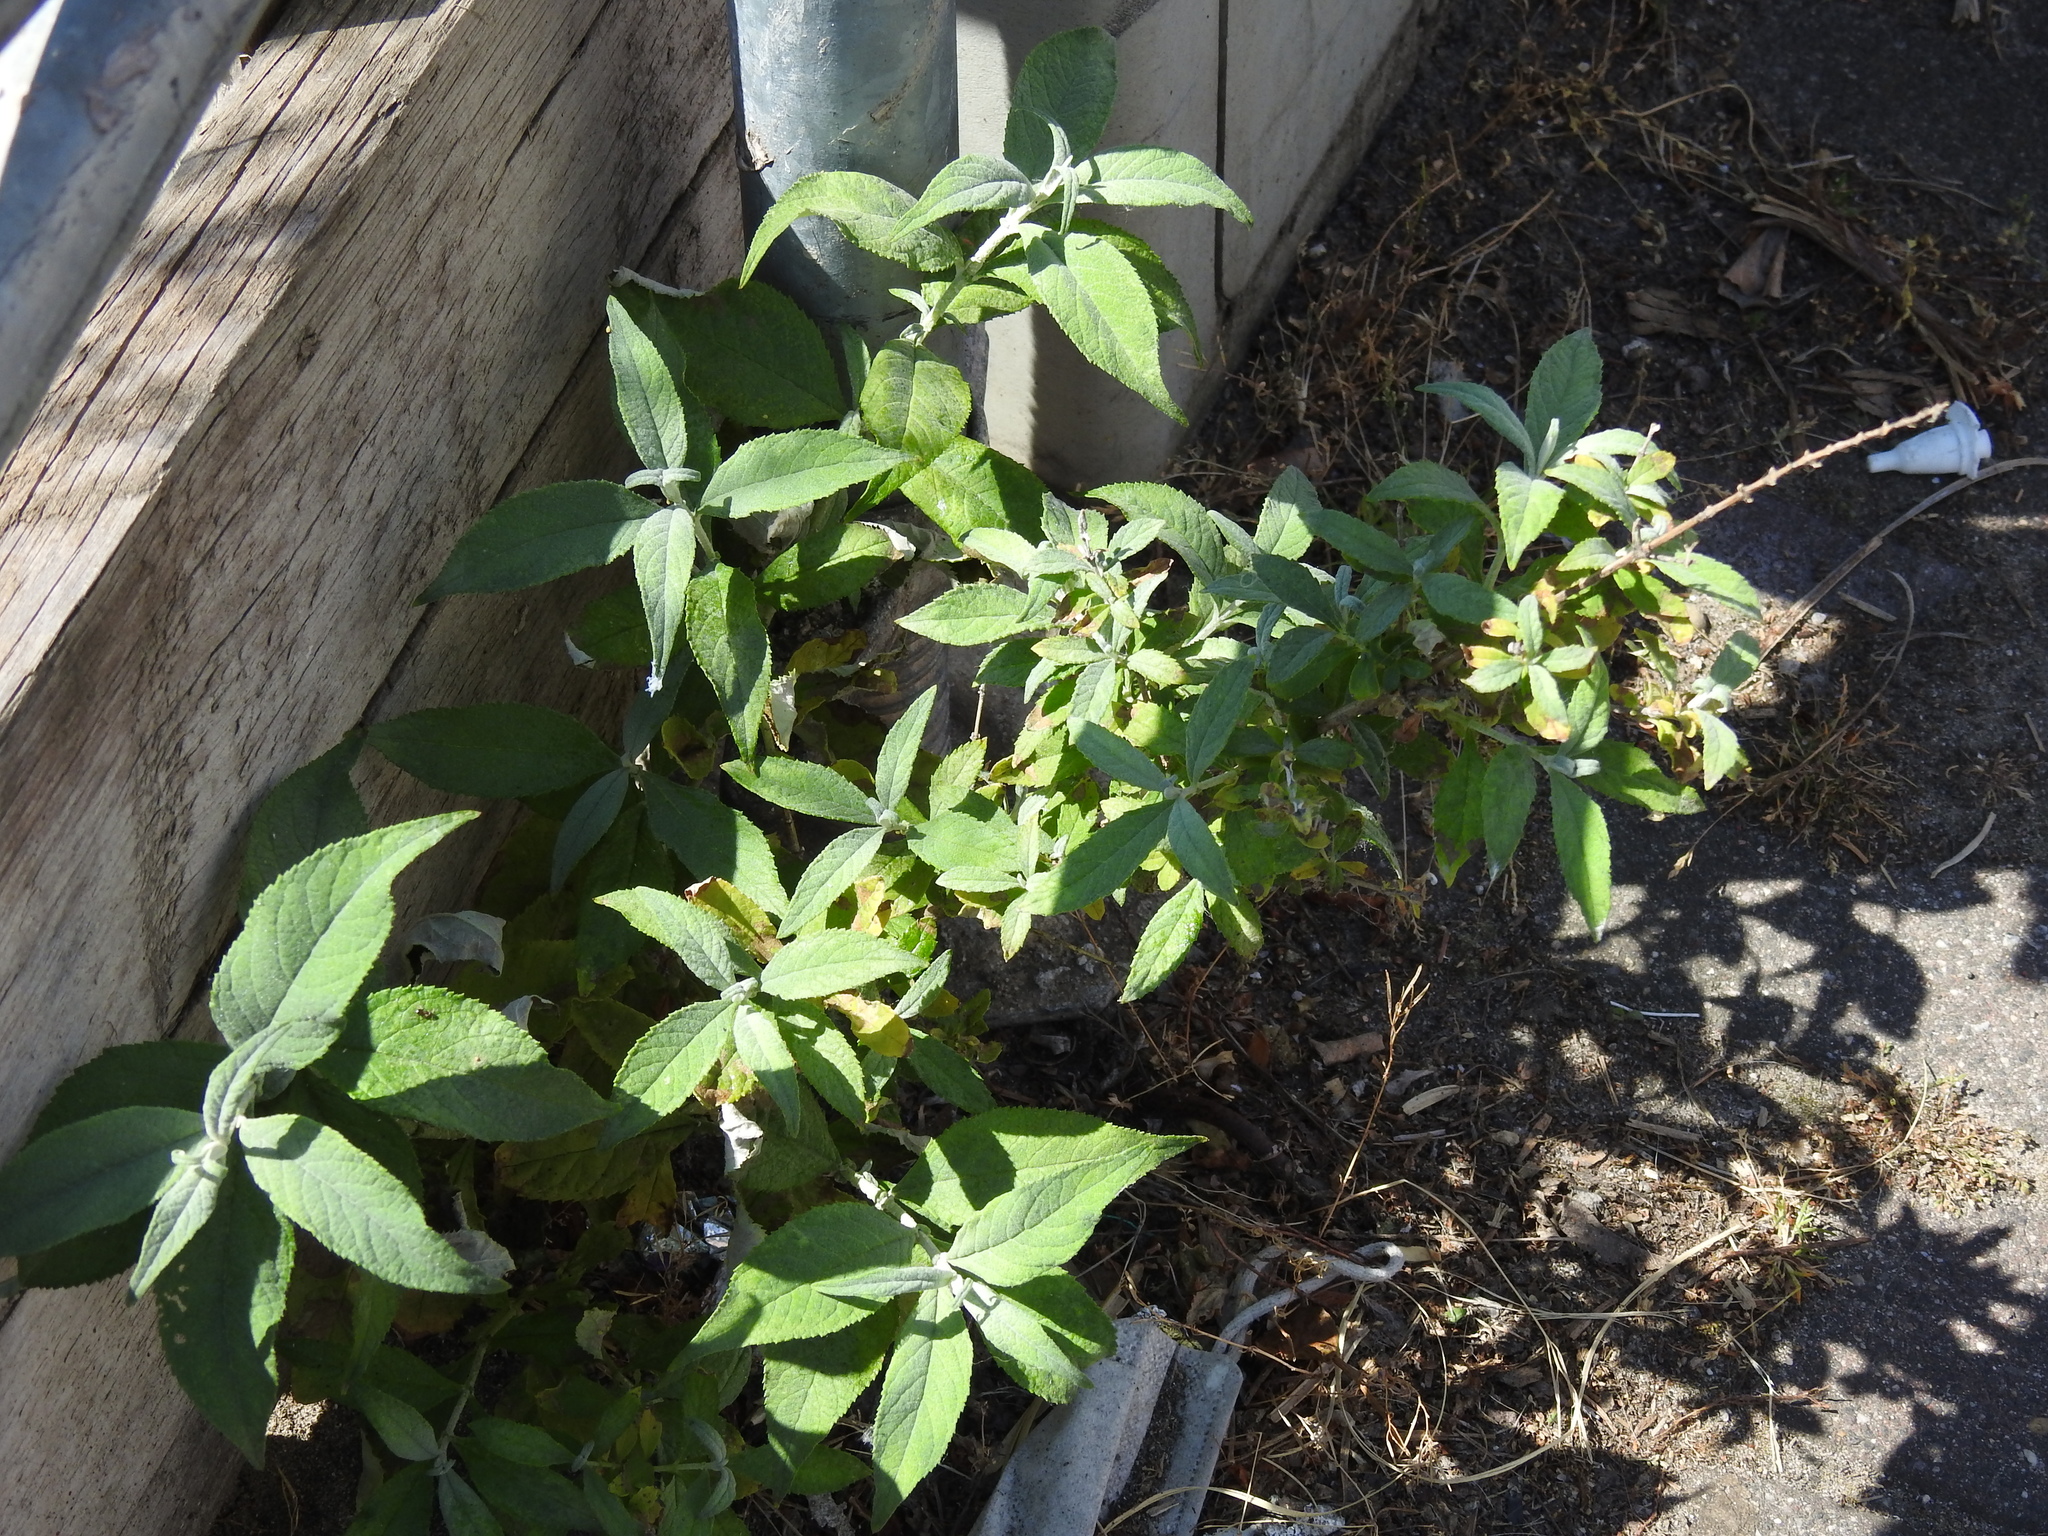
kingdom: Plantae
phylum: Tracheophyta
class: Magnoliopsida
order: Lamiales
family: Scrophulariaceae
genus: Buddleja
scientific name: Buddleja davidii
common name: Butterfly-bush
